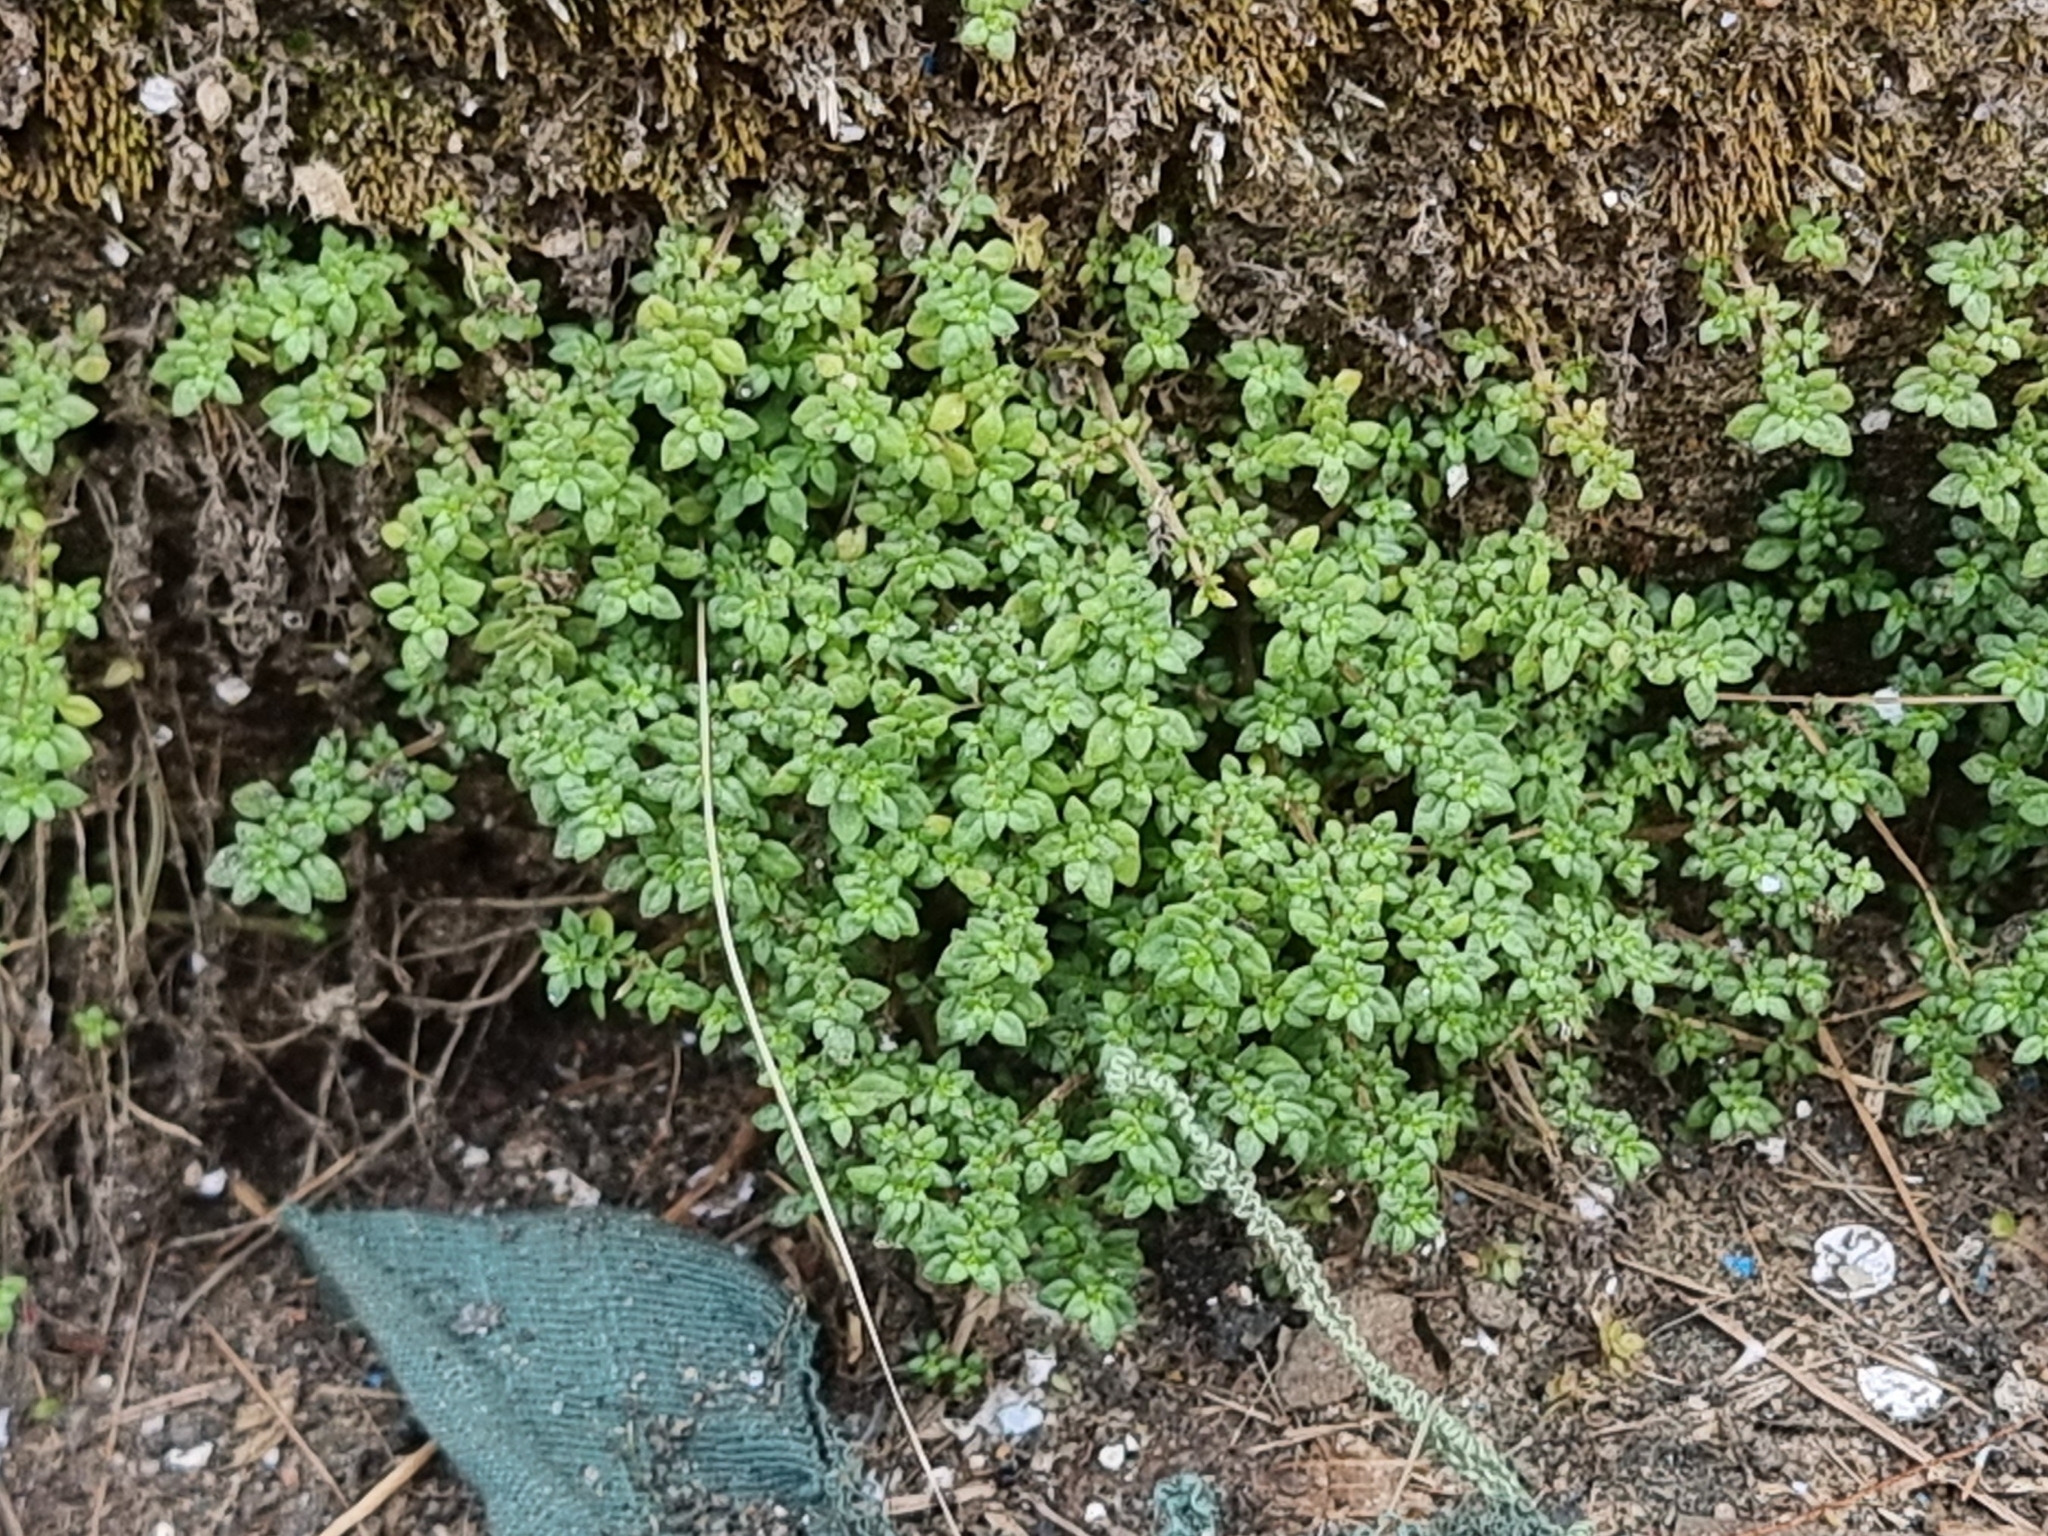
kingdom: Plantae
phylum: Tracheophyta
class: Magnoliopsida
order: Rosales
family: Urticaceae
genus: Pilea
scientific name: Pilea microphylla
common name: Artillery-plant
